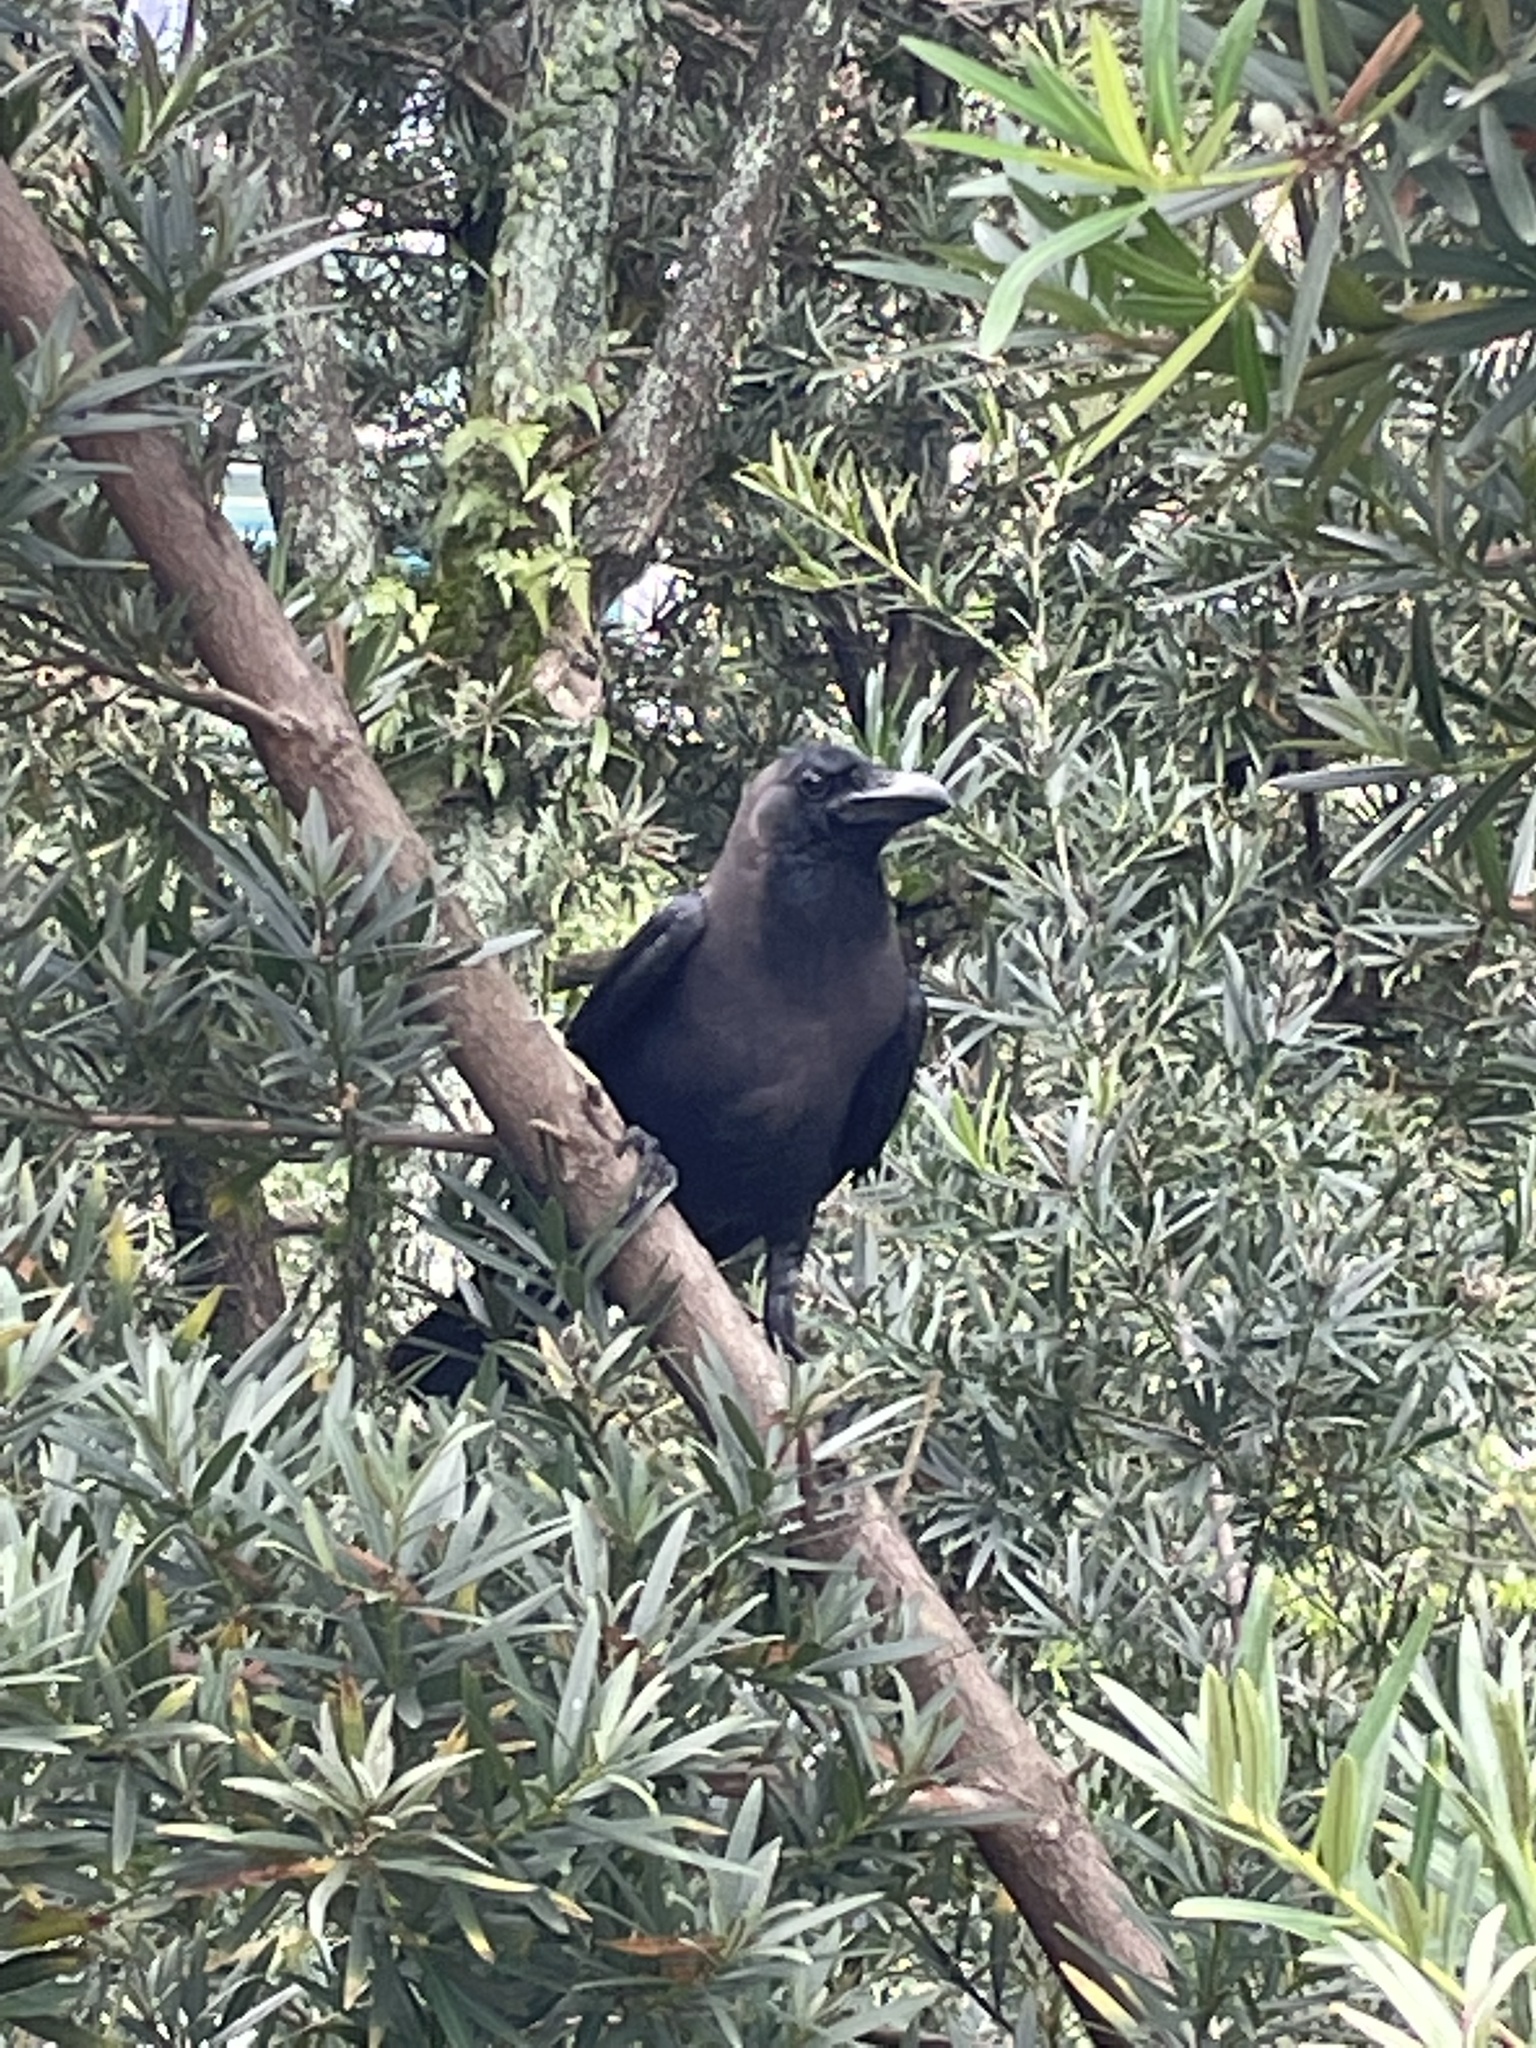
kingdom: Animalia
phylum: Chordata
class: Aves
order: Passeriformes
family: Corvidae
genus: Corvus
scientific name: Corvus splendens
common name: House crow
